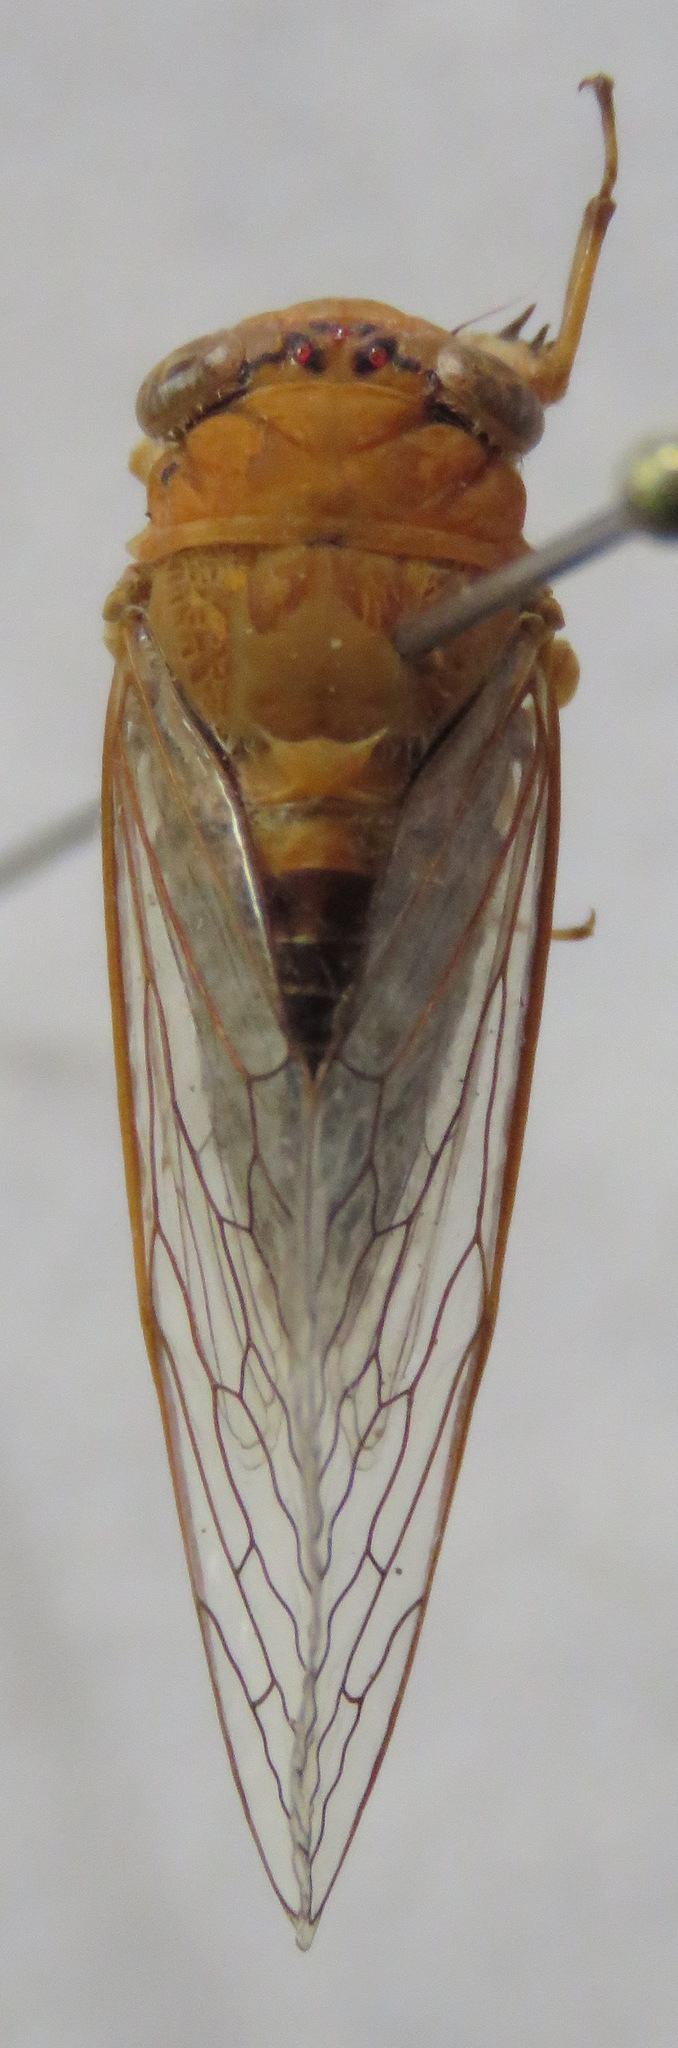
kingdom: Animalia
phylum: Arthropoda
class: Insecta
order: Hemiptera
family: Cicadidae
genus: Herrera
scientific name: Herrera ancilla
